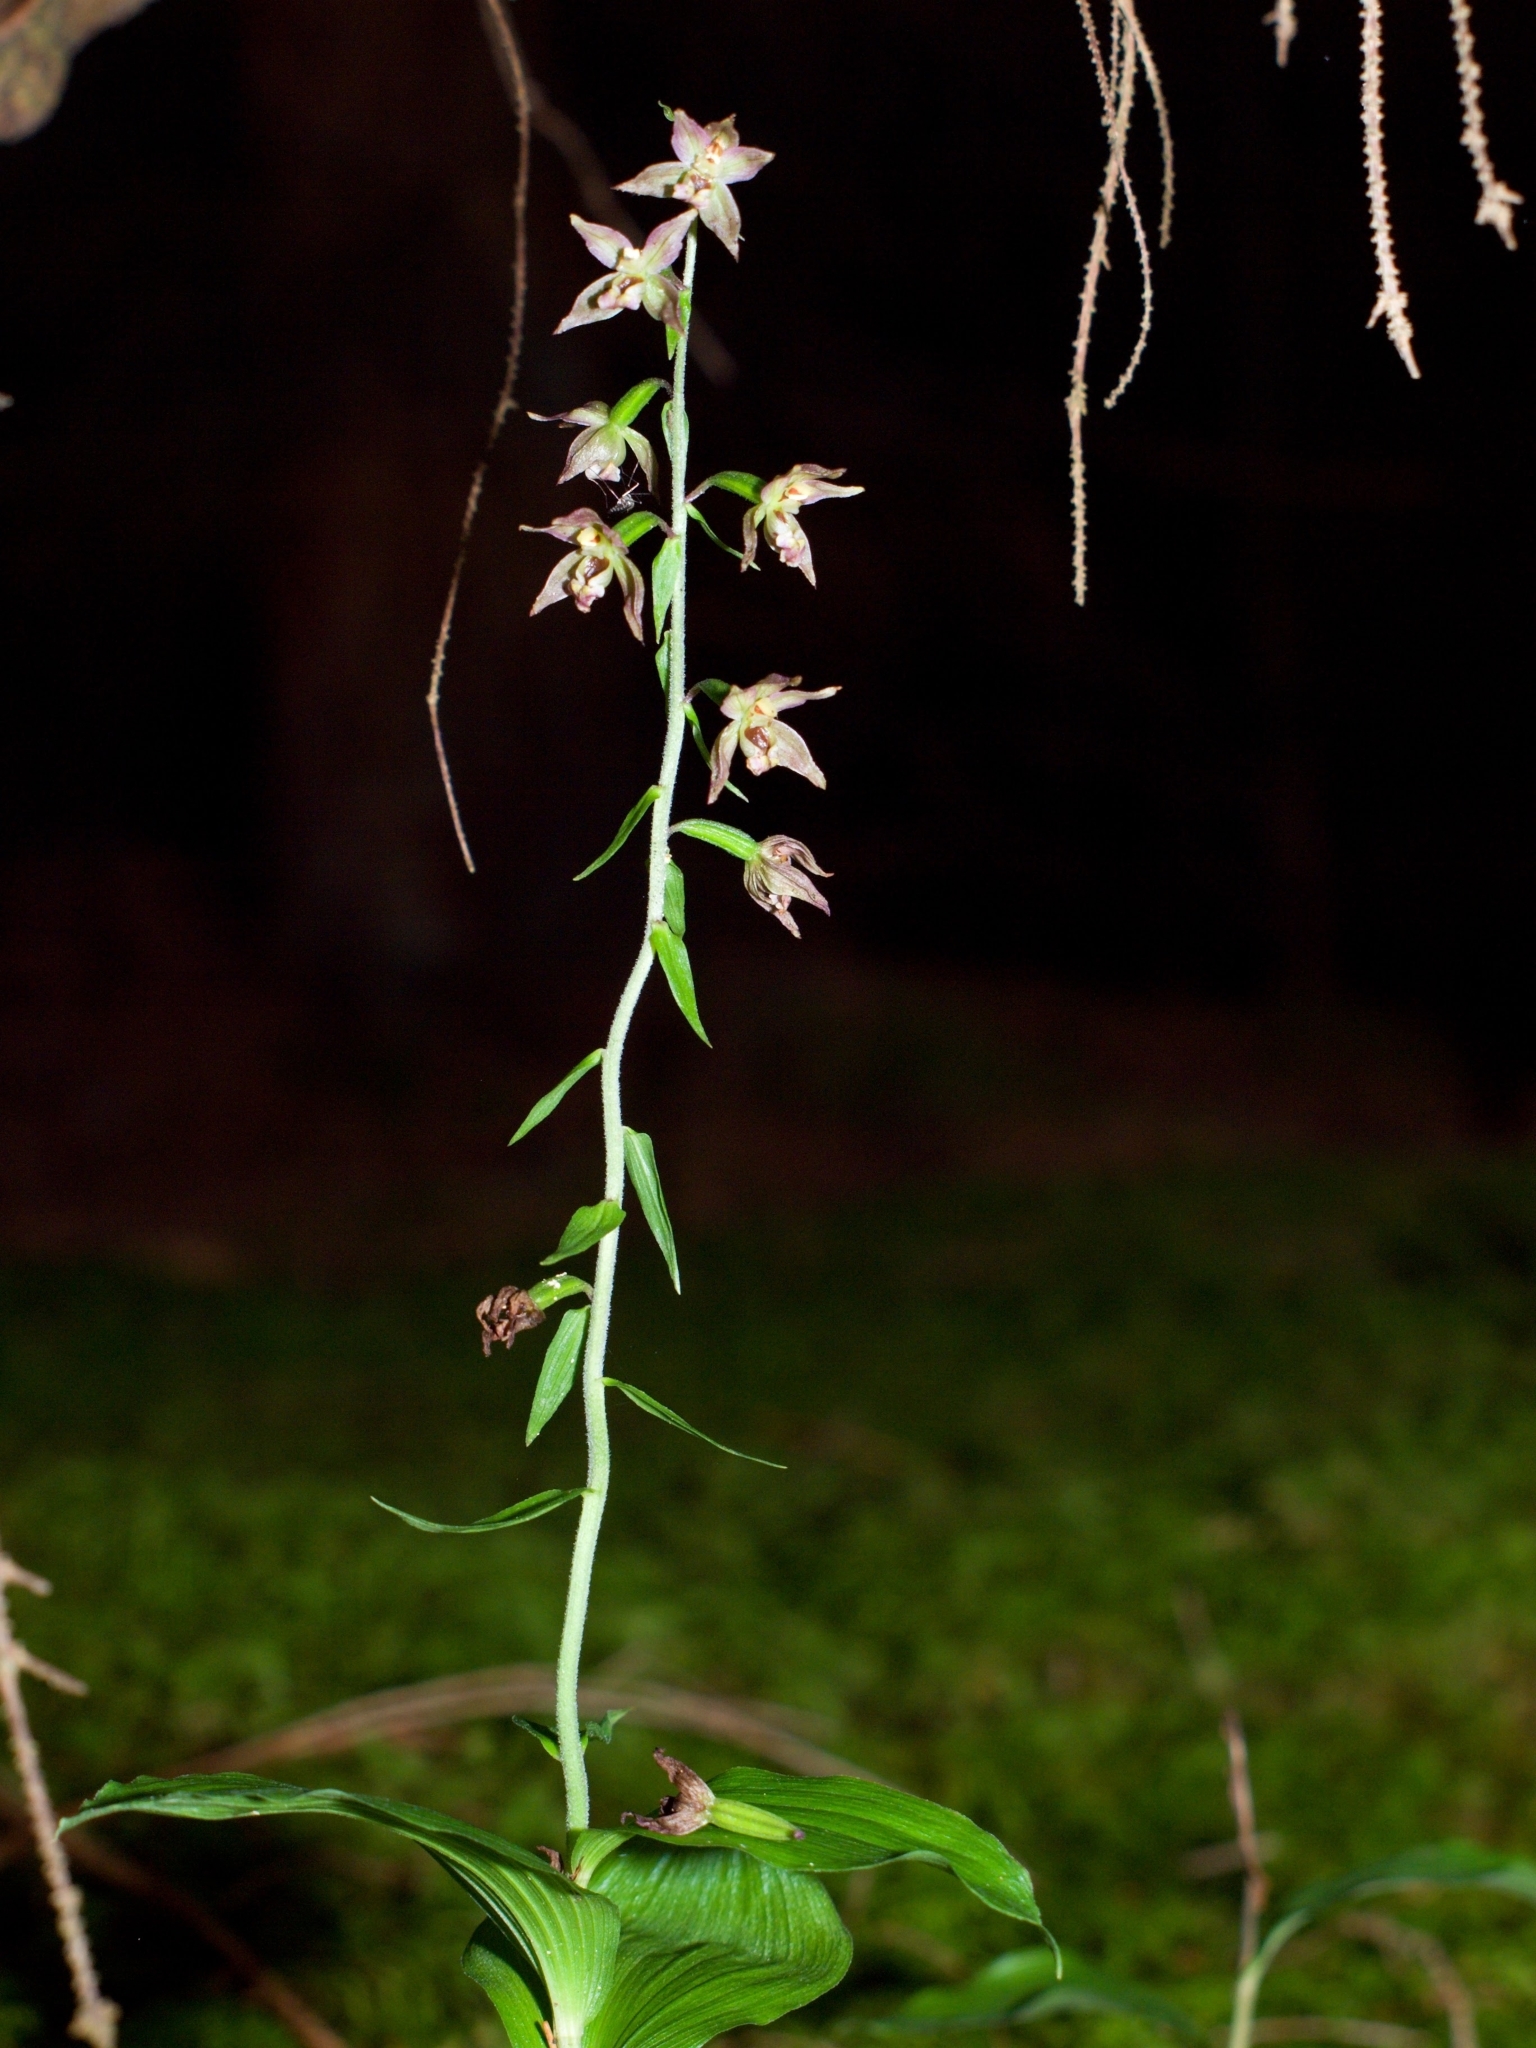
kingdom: Plantae
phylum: Tracheophyta
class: Liliopsida
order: Asparagales
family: Orchidaceae
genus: Epipactis
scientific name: Epipactis helleborine
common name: Broad-leaved helleborine
